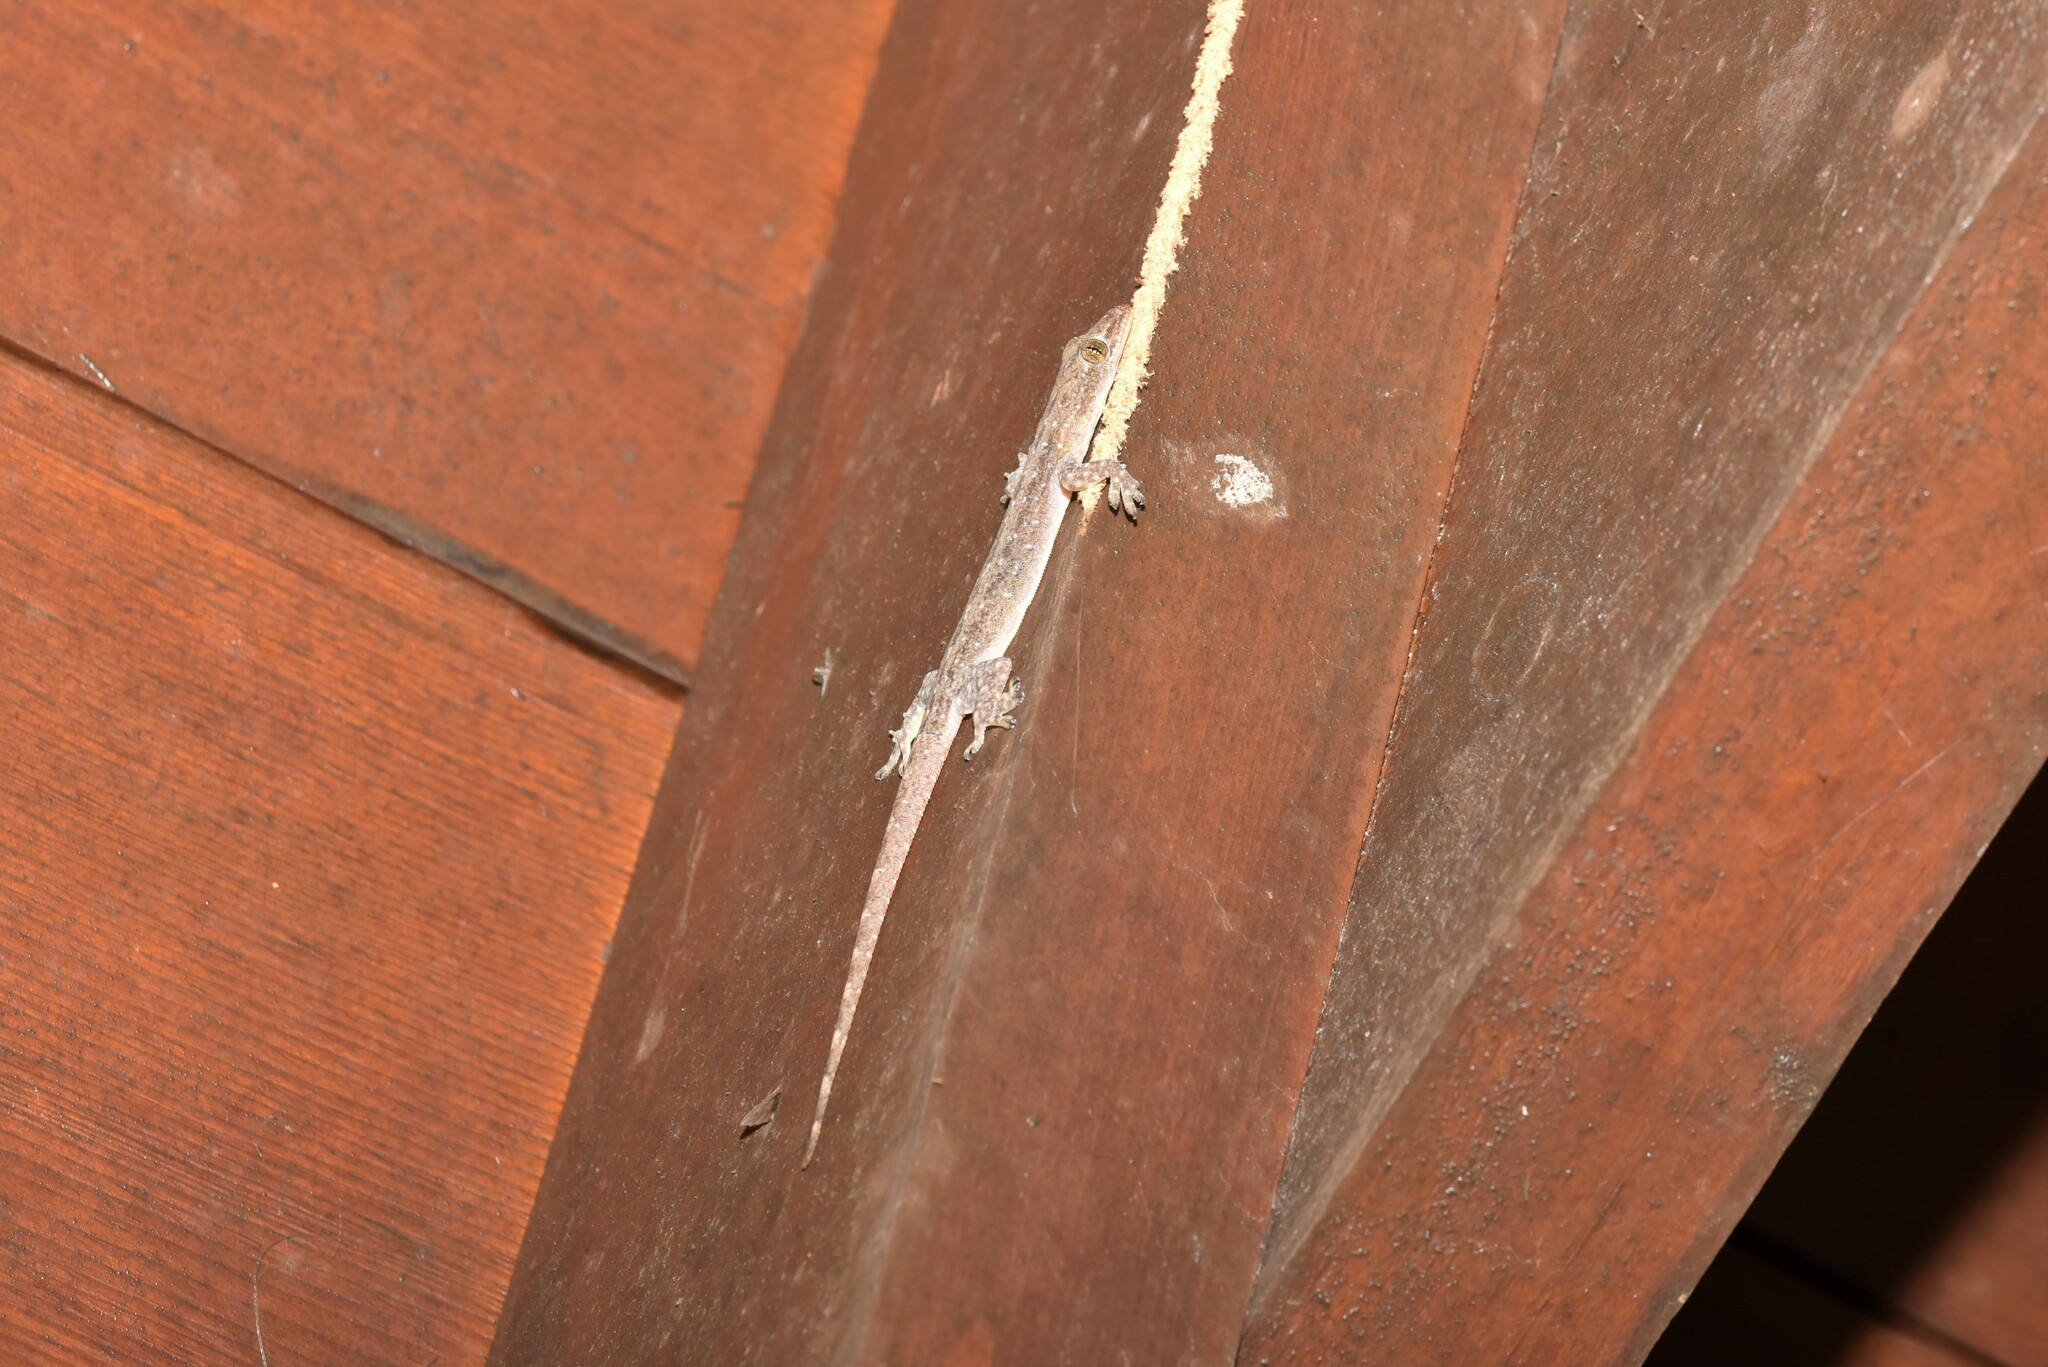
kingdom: Animalia
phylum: Chordata
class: Squamata
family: Gekkonidae
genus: Hemidactylus
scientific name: Hemidactylus frenatus
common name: Common house gecko
